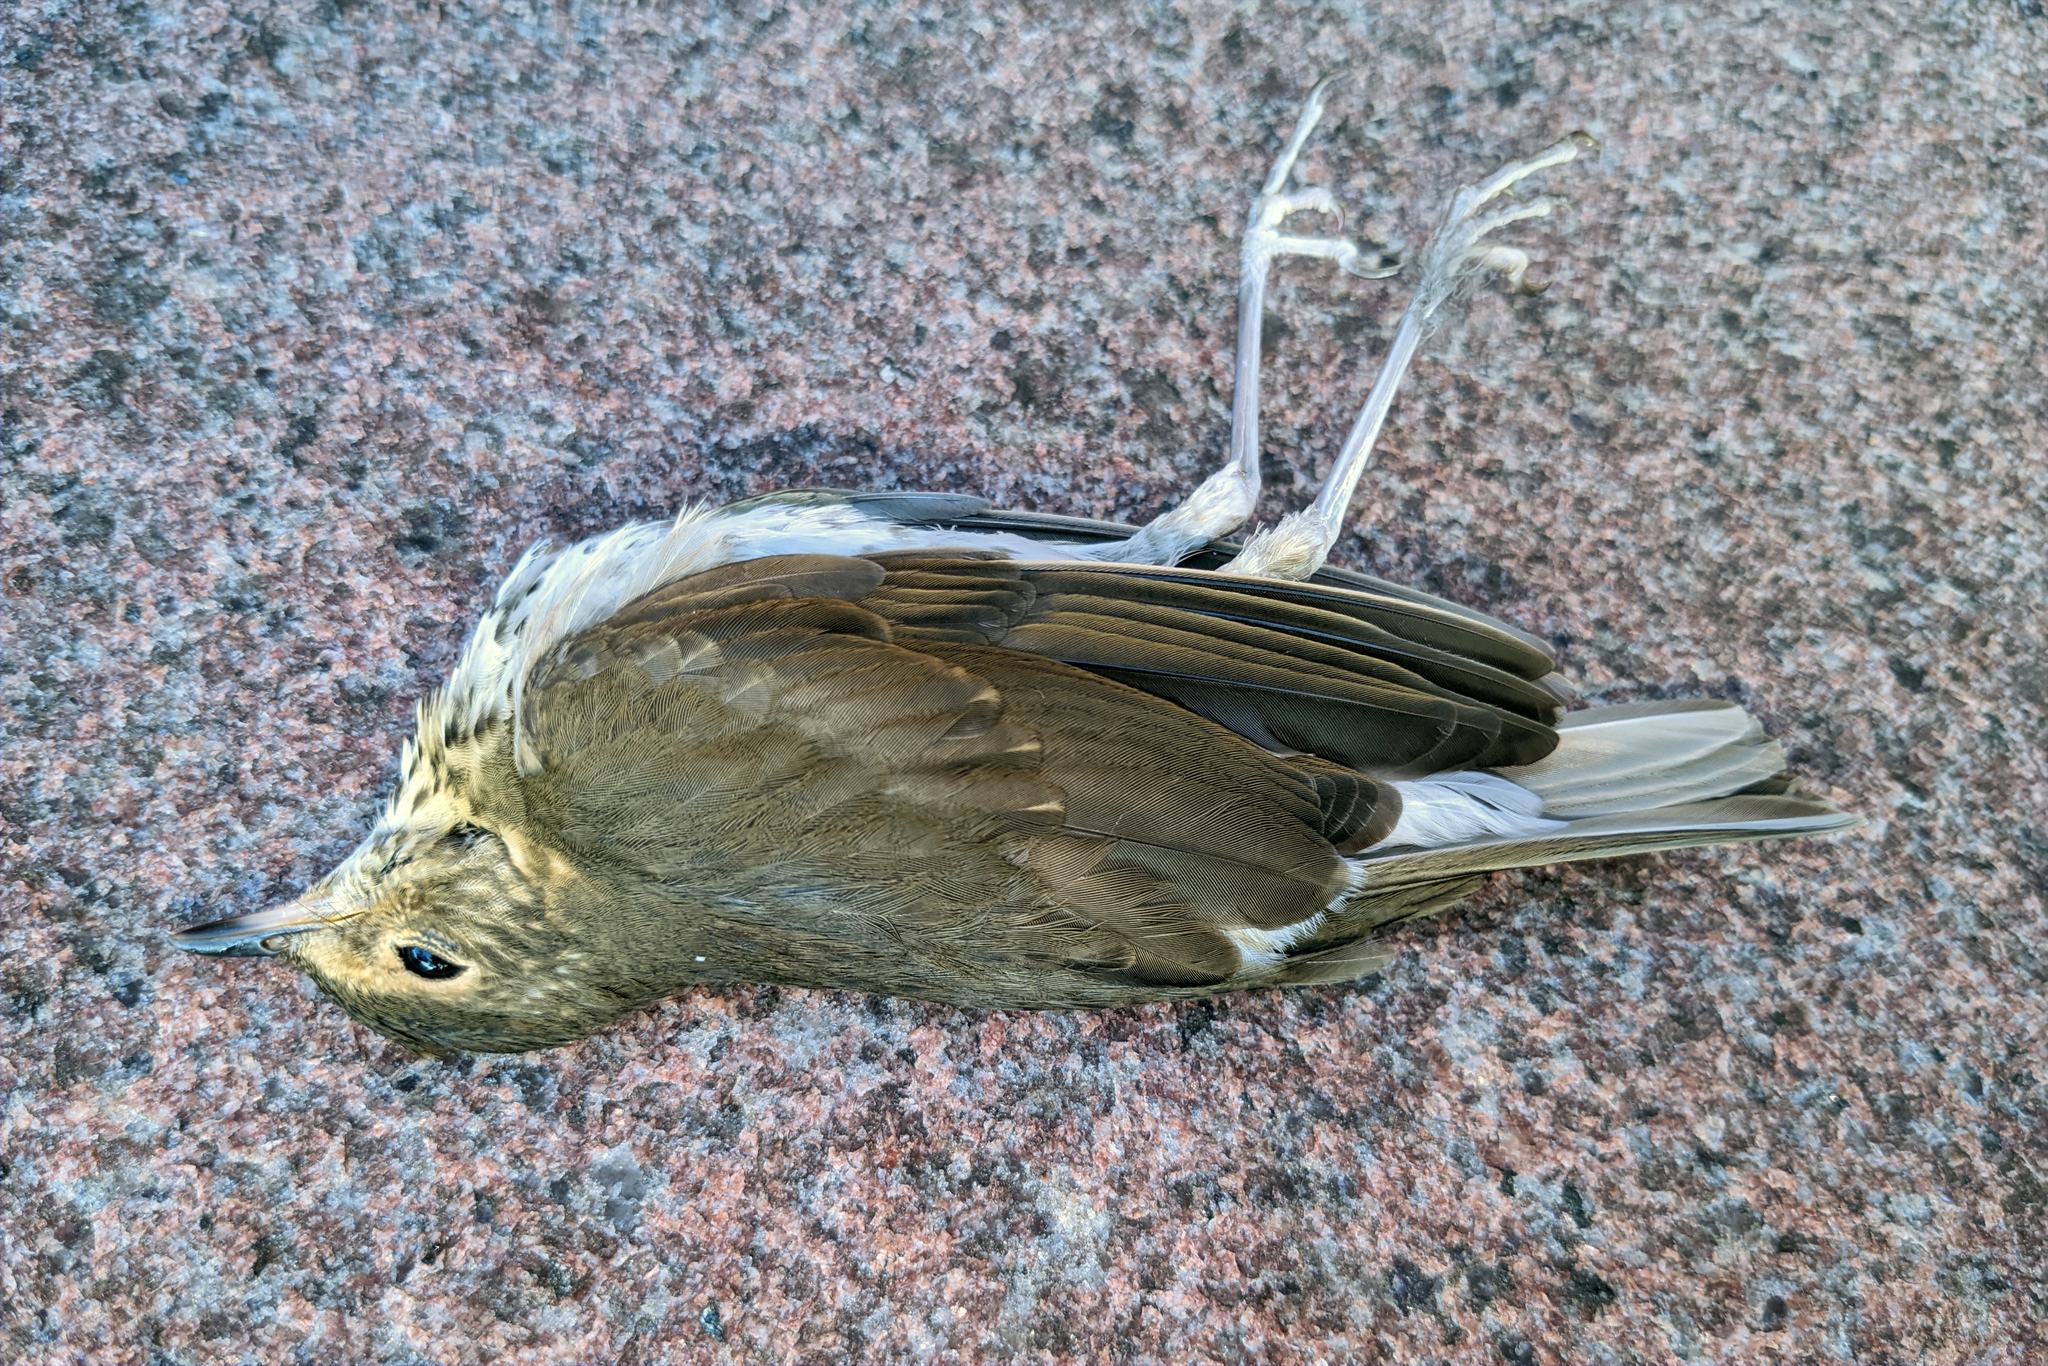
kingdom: Animalia
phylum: Chordata
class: Aves
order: Passeriformes
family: Turdidae
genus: Catharus
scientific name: Catharus ustulatus
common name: Swainson's thrush
